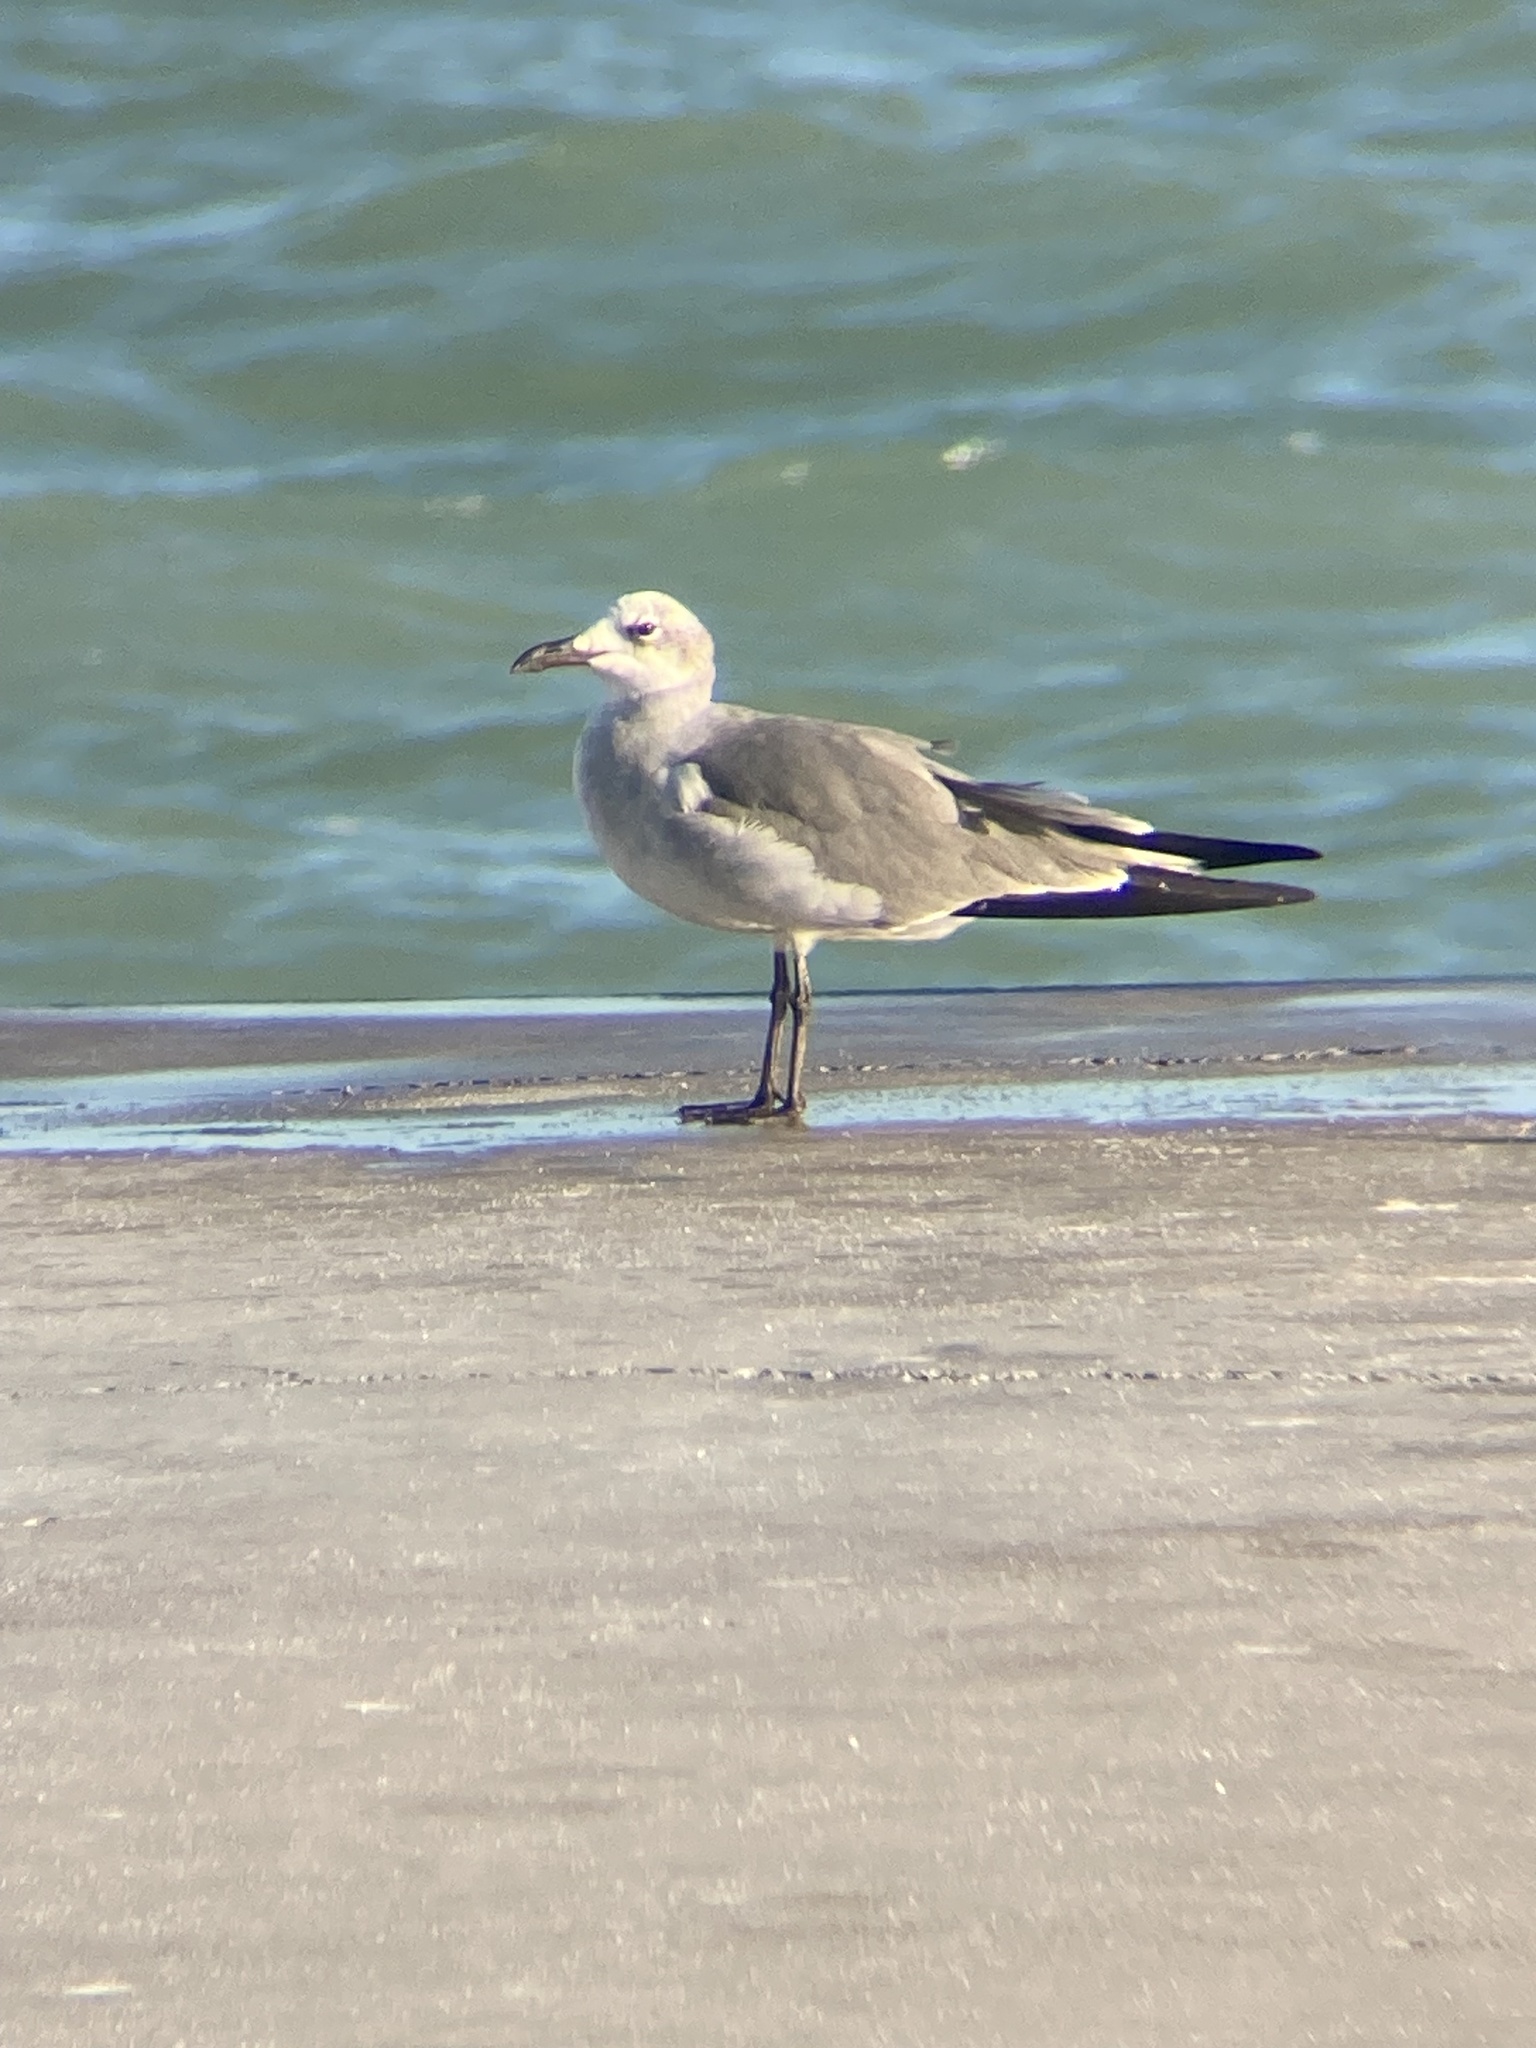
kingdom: Animalia
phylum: Chordata
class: Aves
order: Charadriiformes
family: Laridae
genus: Leucophaeus
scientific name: Leucophaeus atricilla
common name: Laughing gull
